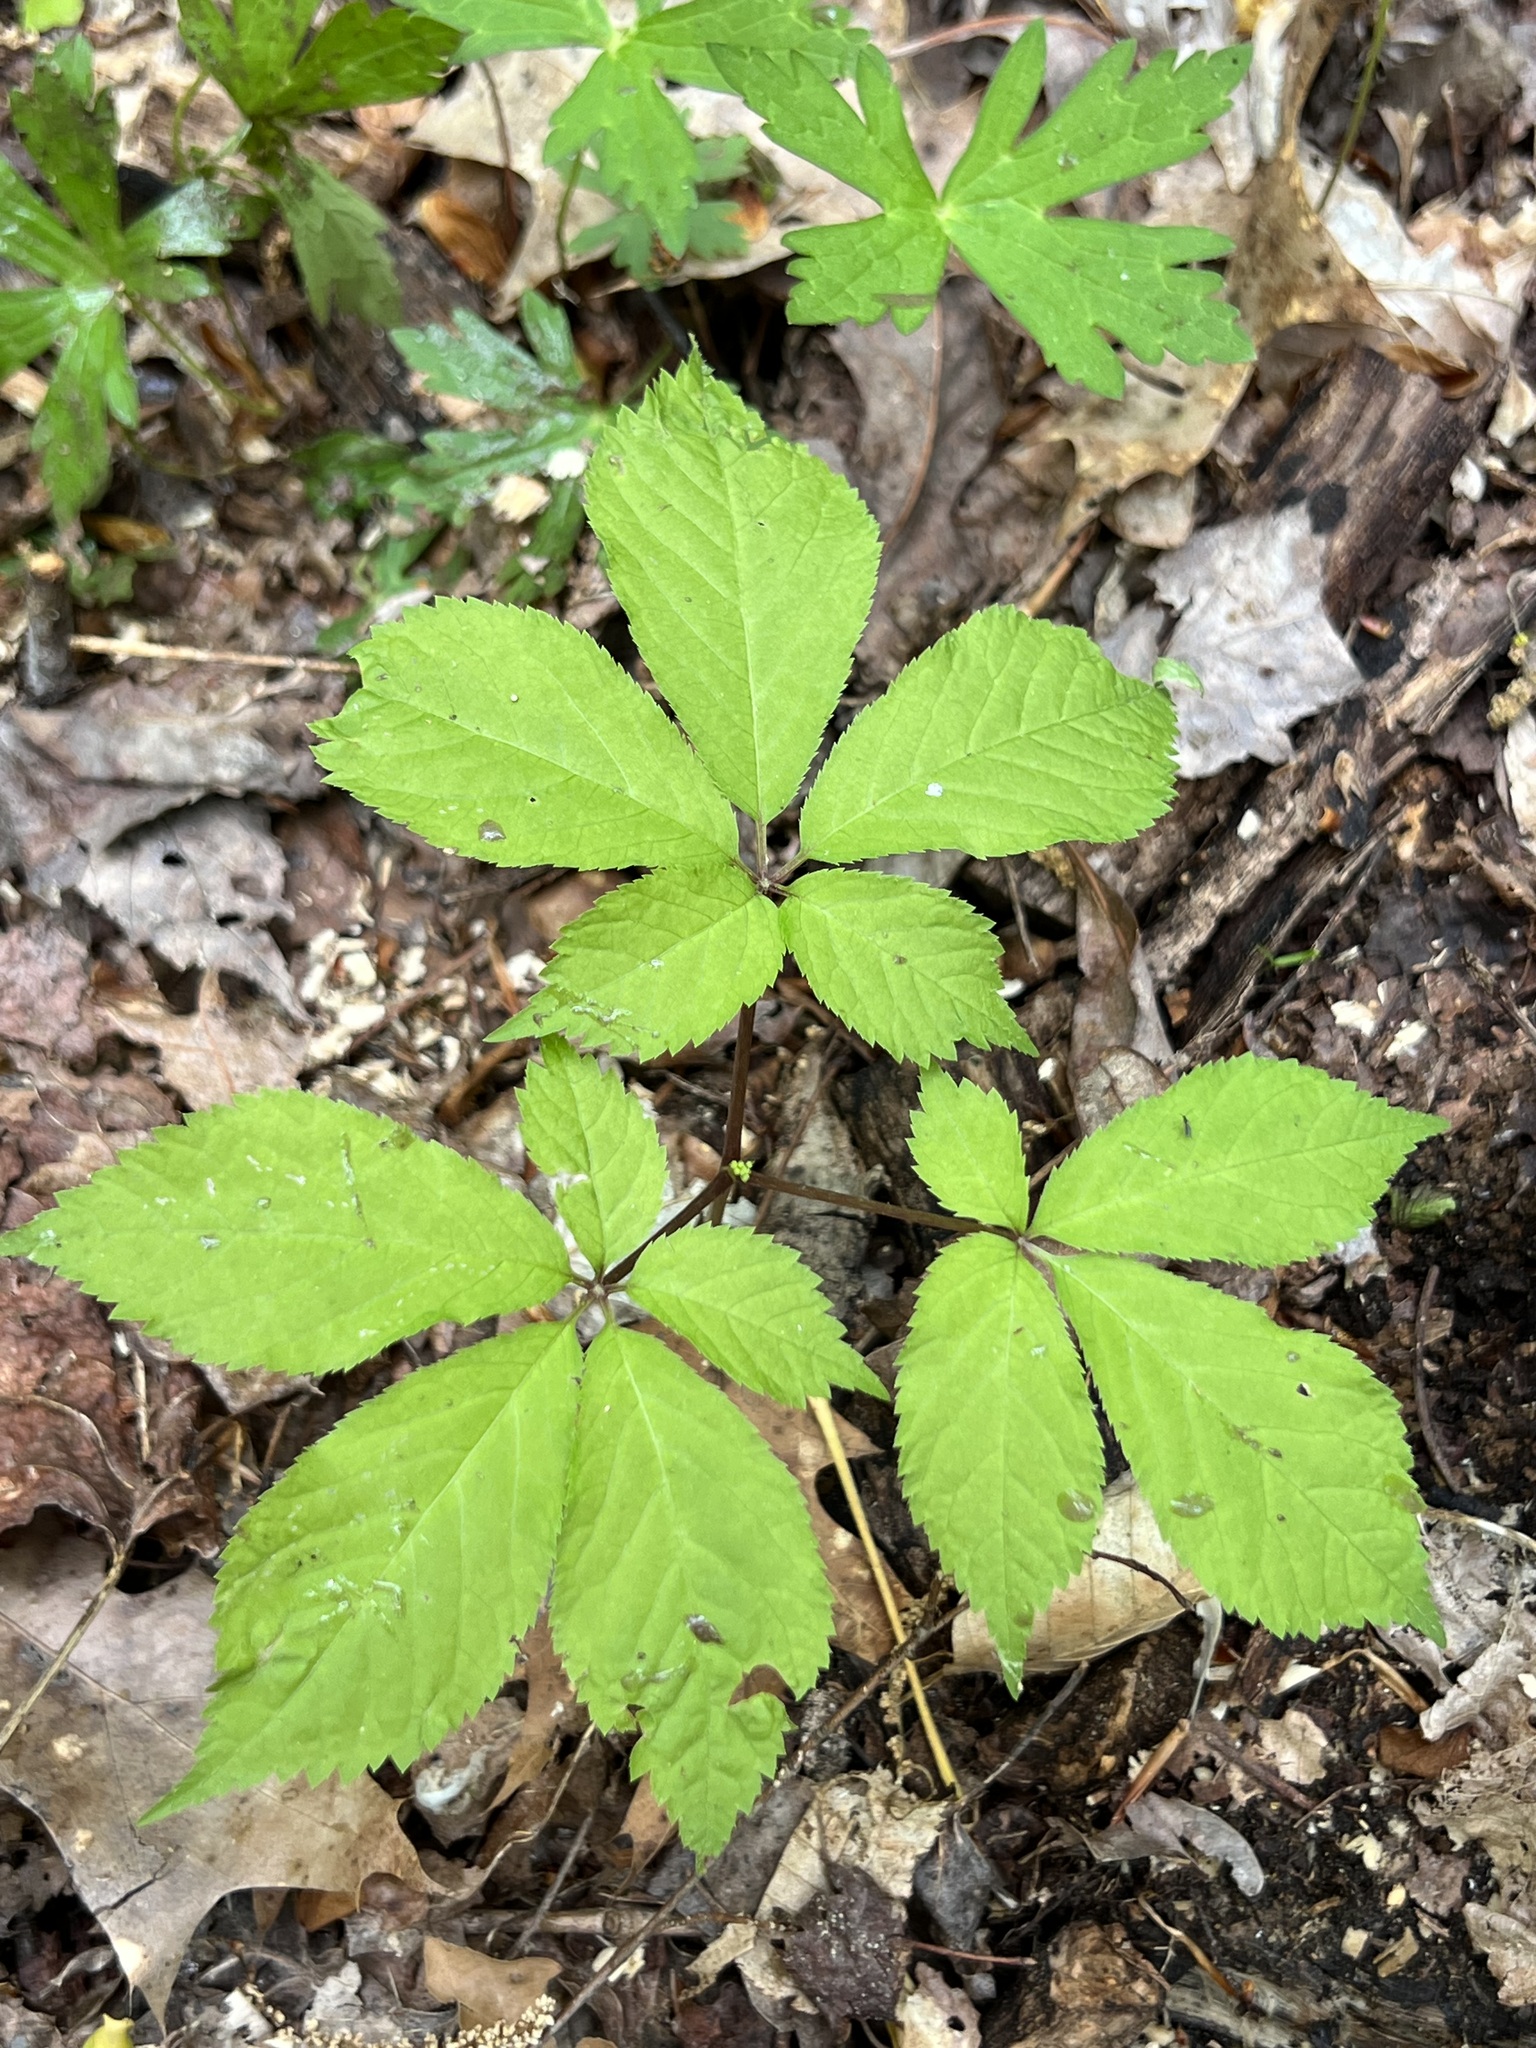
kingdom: Plantae
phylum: Tracheophyta
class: Magnoliopsida
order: Apiales
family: Araliaceae
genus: Panax
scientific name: Panax quinquefolius
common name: American ginseng
